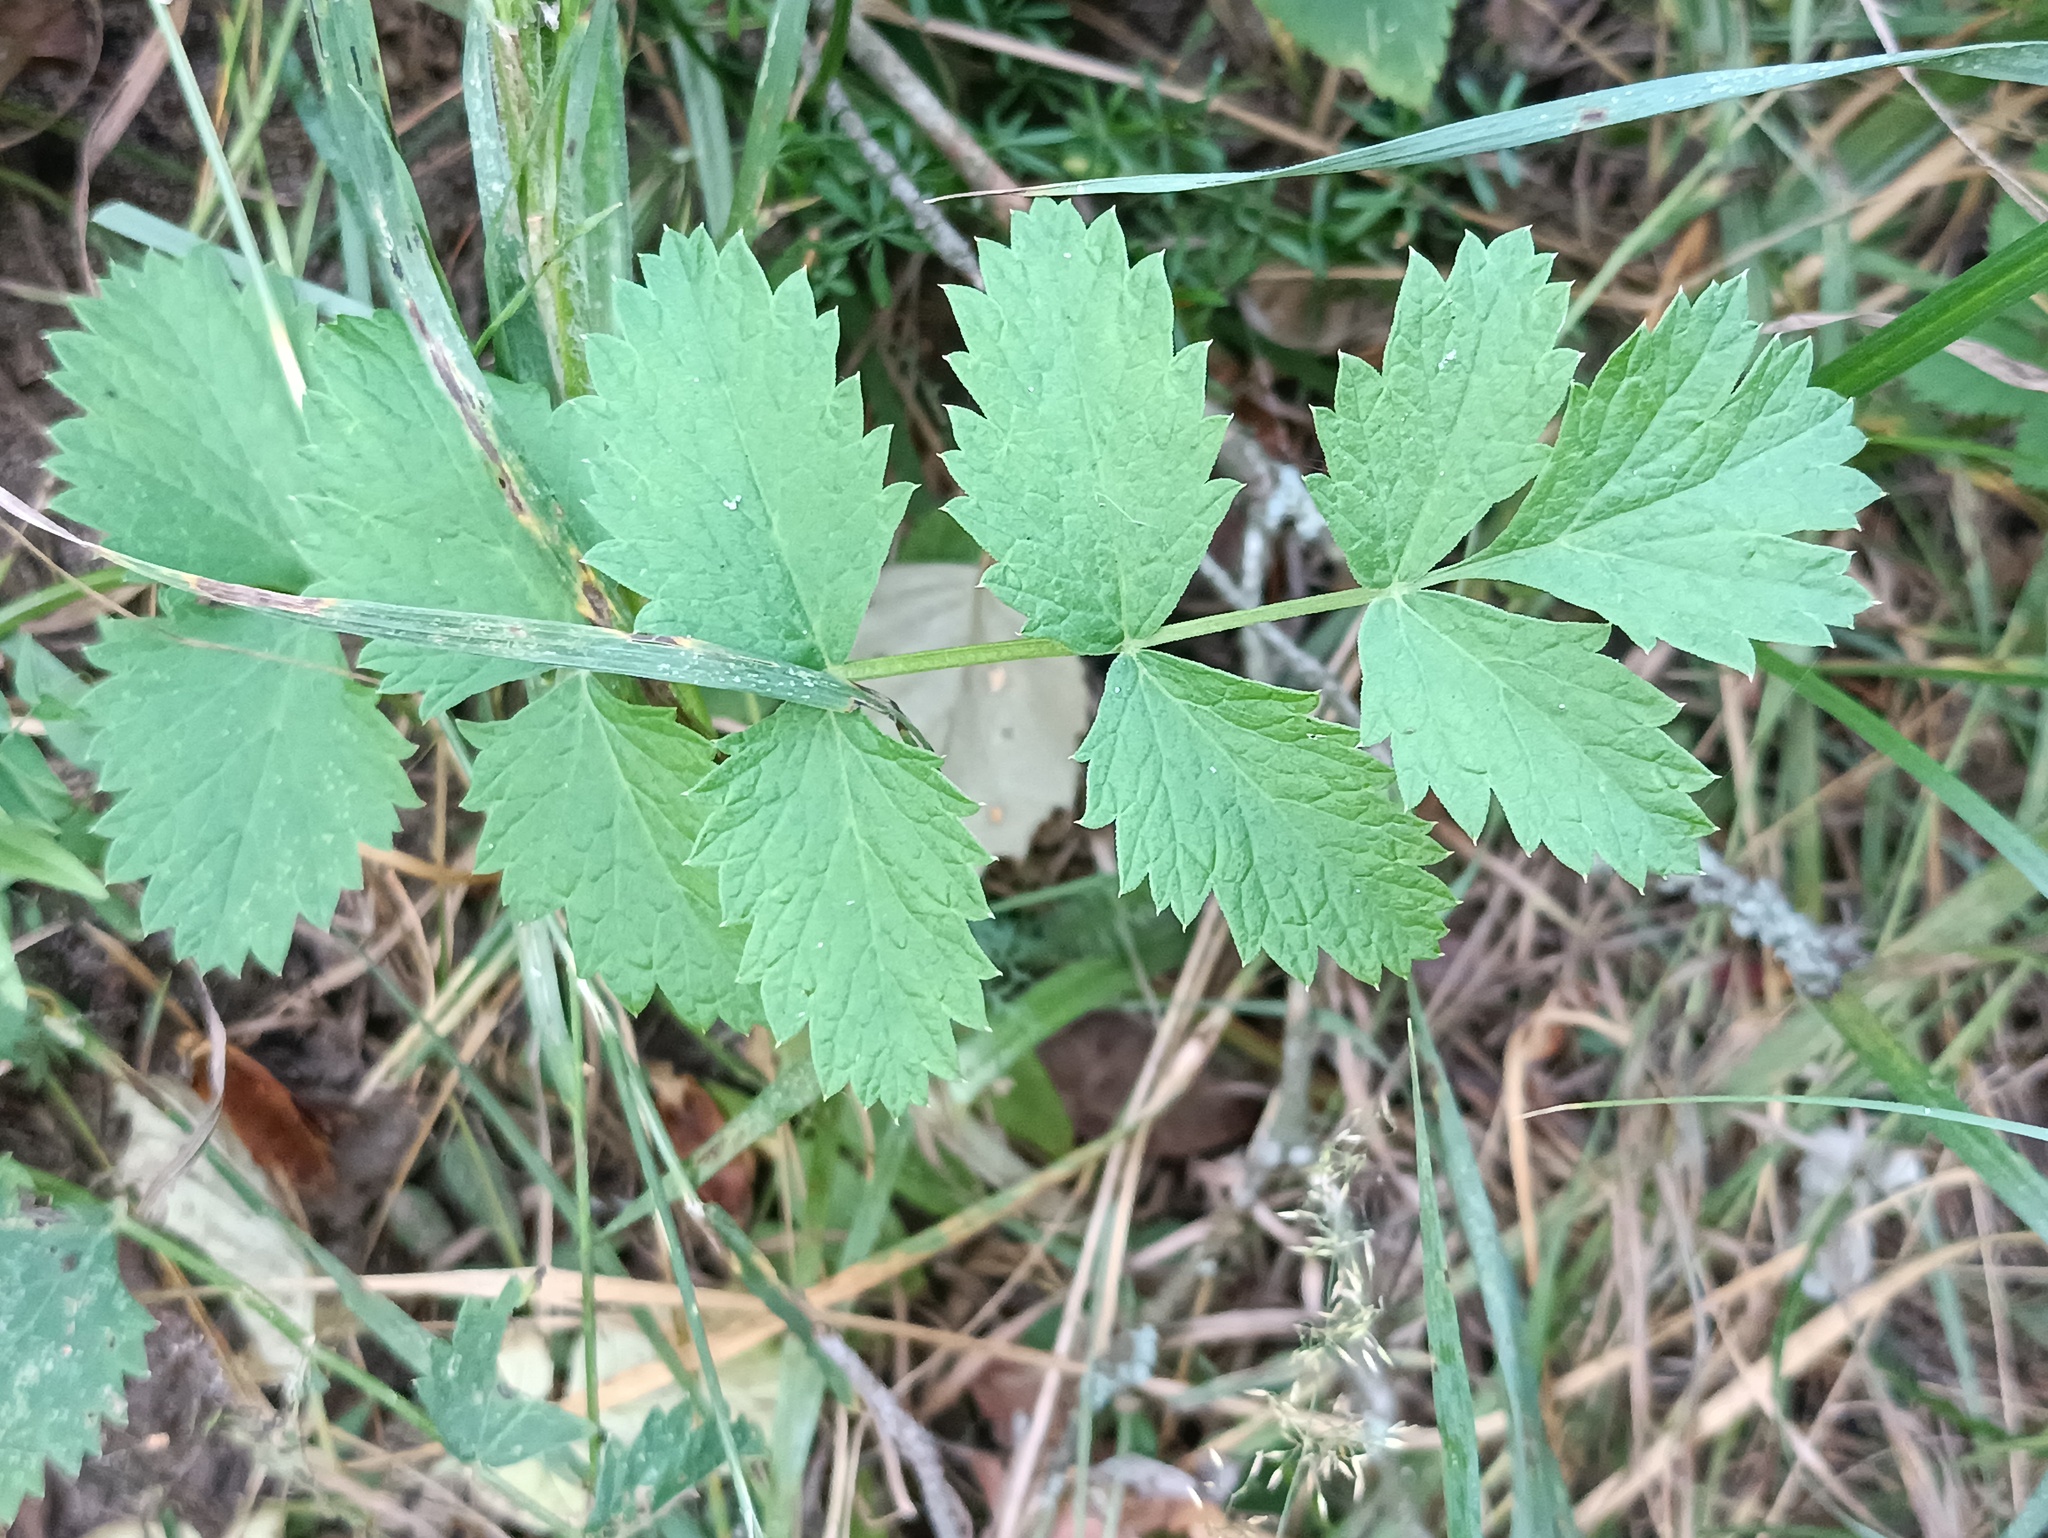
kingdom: Plantae
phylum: Tracheophyta
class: Magnoliopsida
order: Apiales
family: Apiaceae
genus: Pimpinella
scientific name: Pimpinella saxifraga
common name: Burnet-saxifrage
